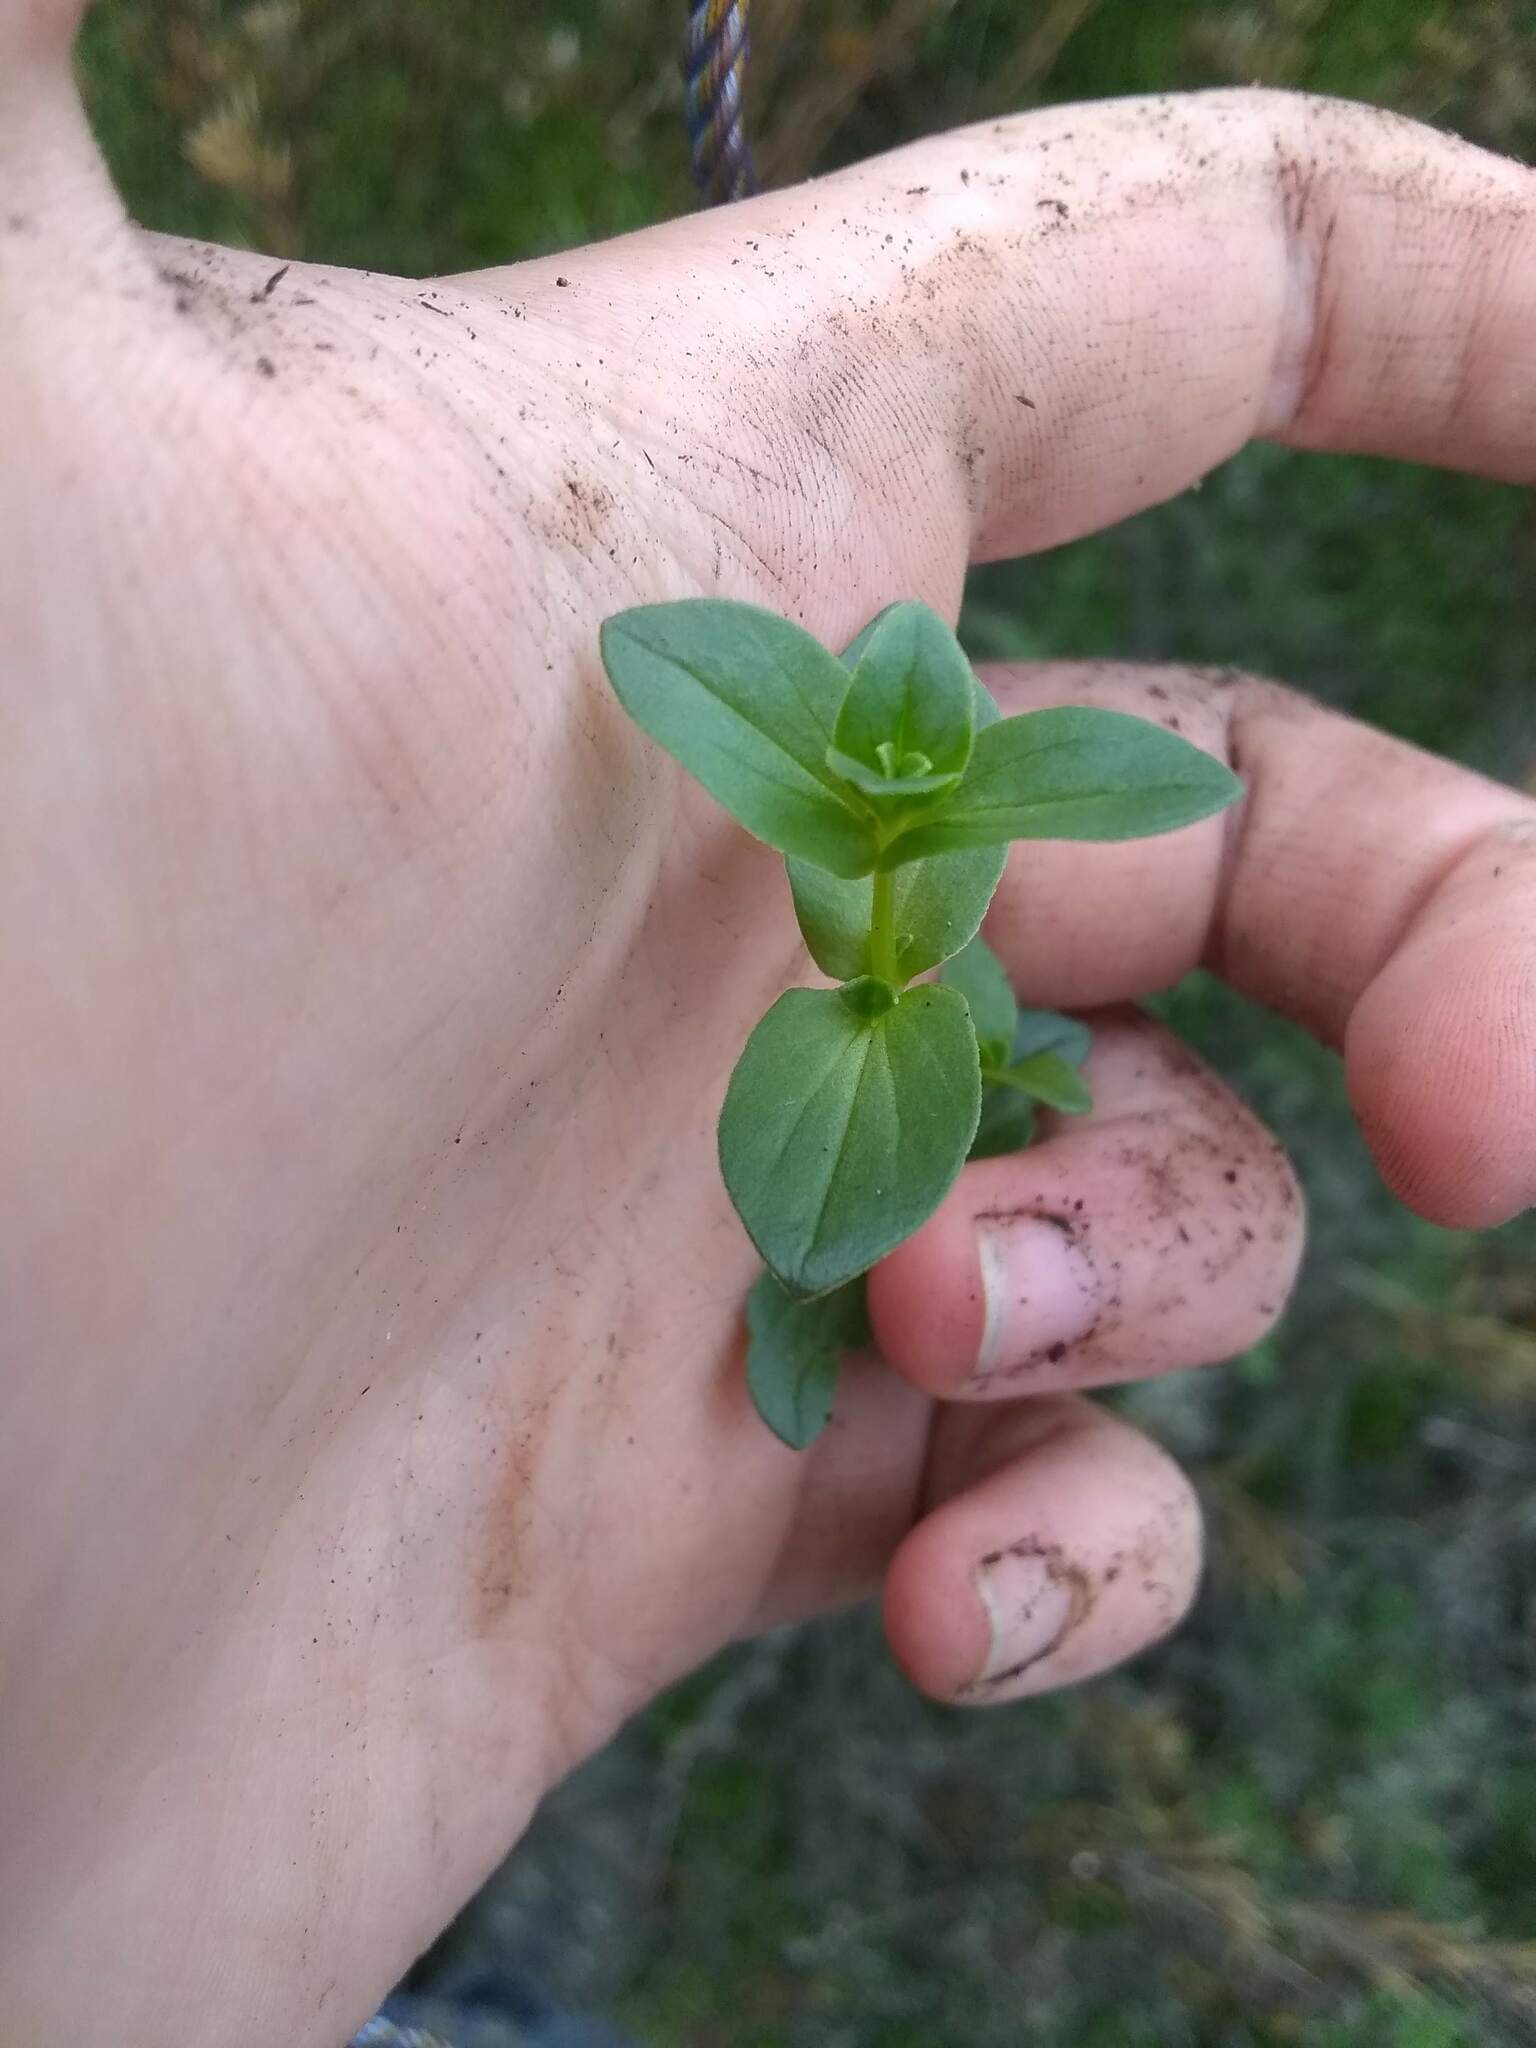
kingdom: Plantae
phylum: Tracheophyta
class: Magnoliopsida
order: Ericales
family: Primulaceae
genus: Lysimachia
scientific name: Lysimachia arvensis
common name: Scarlet pimpernel
